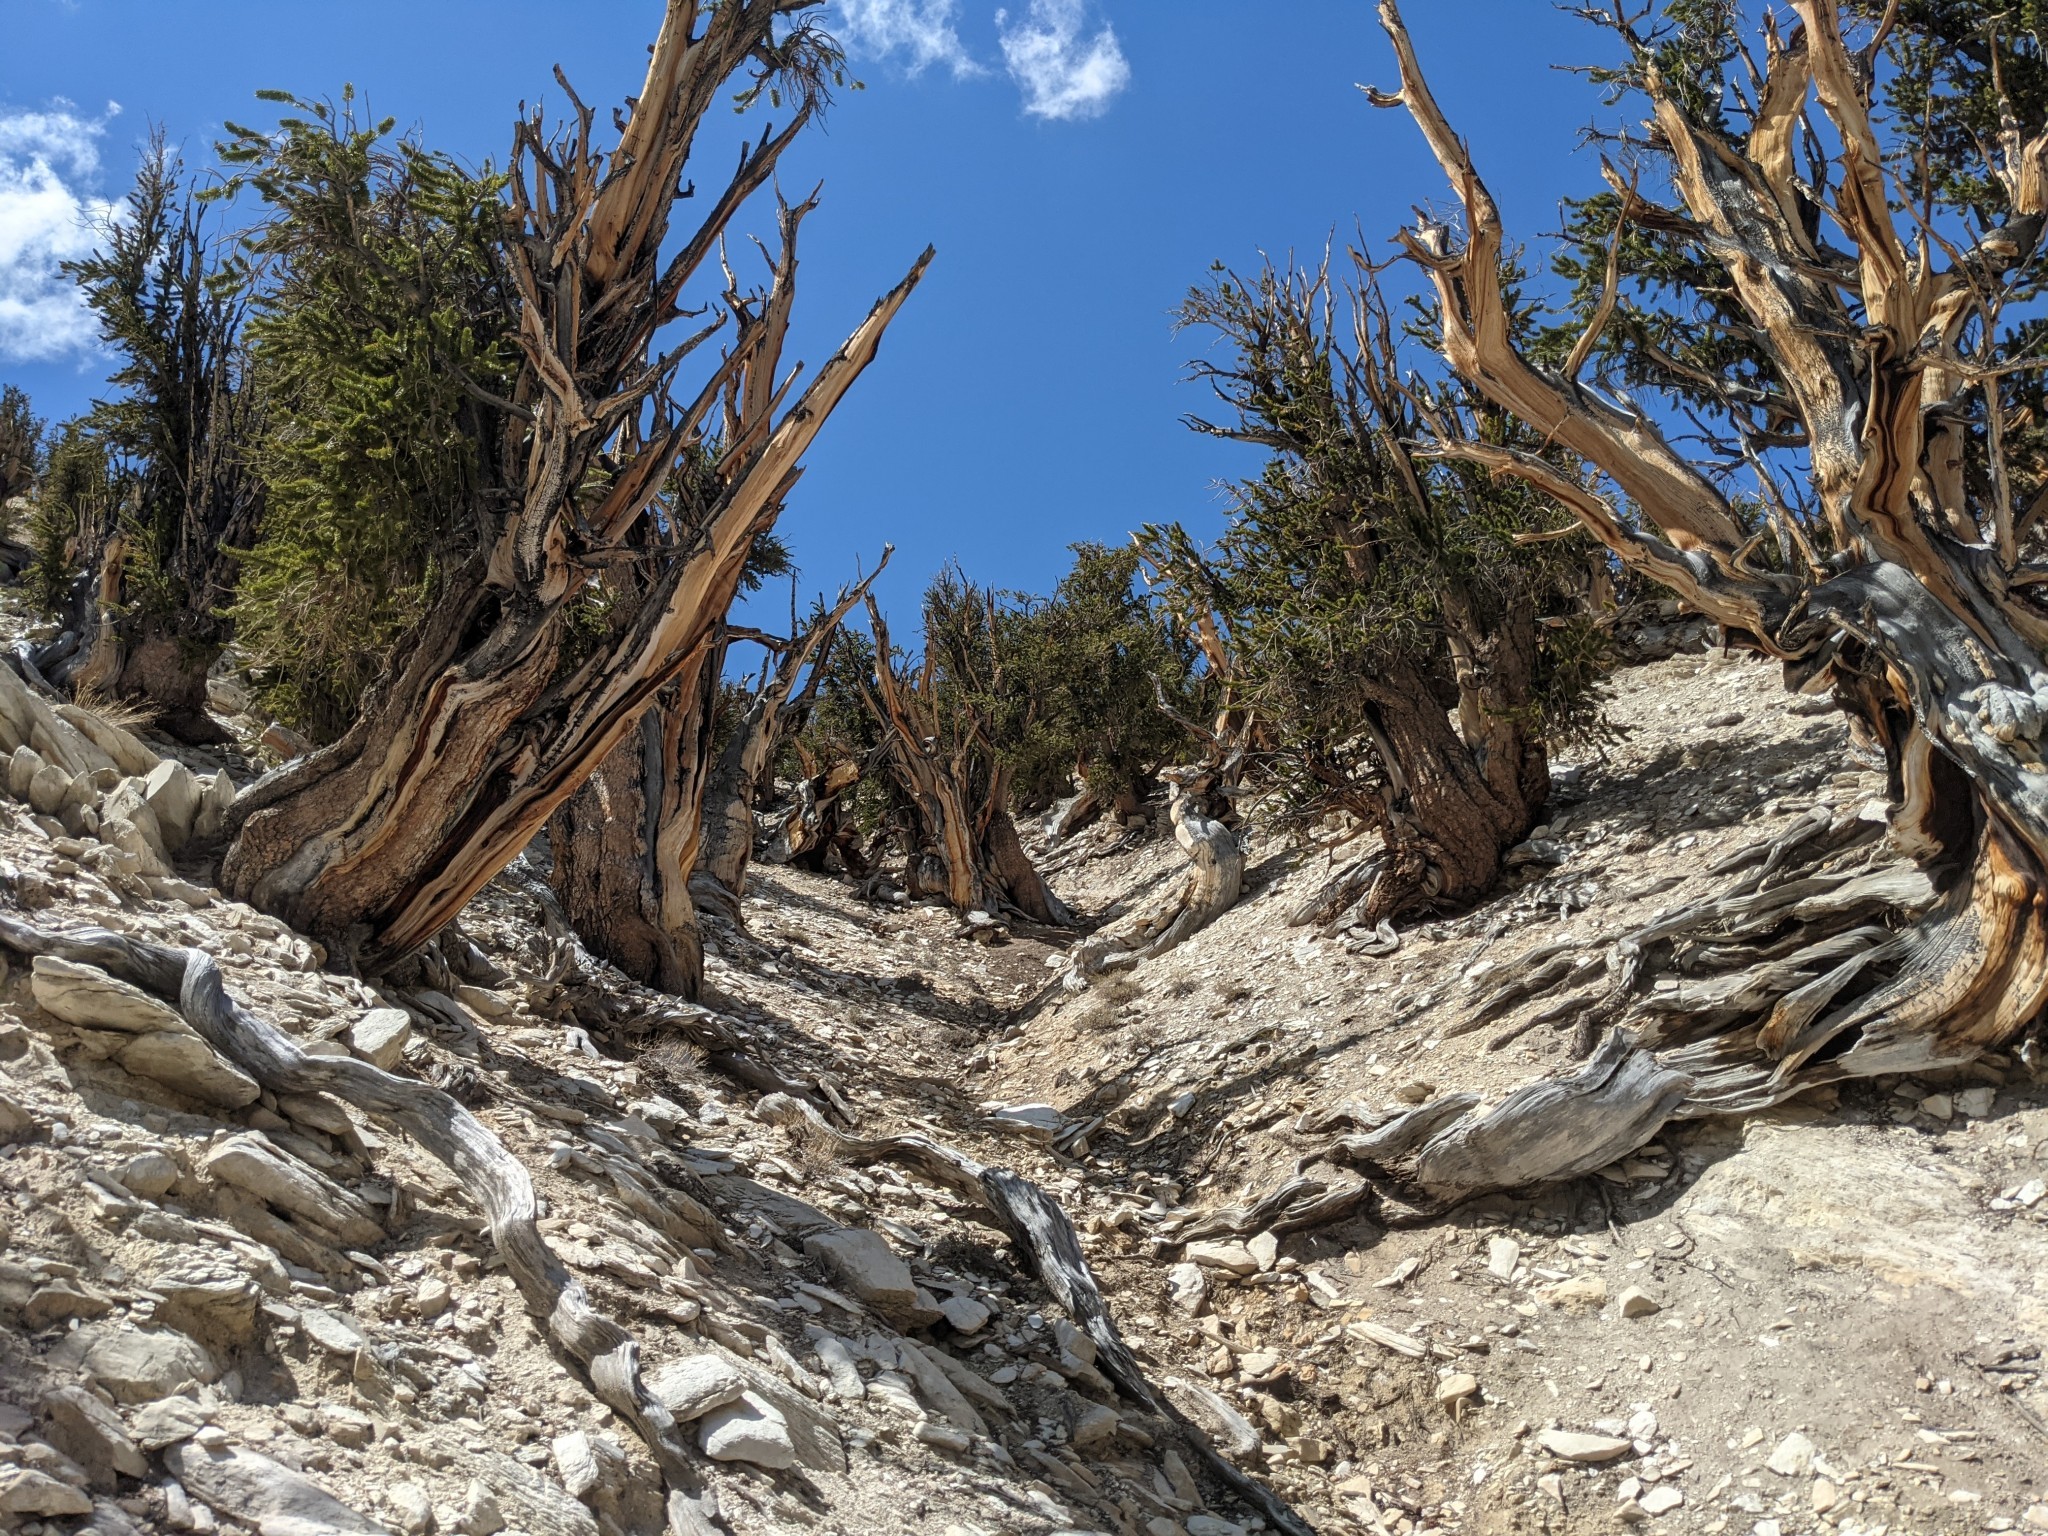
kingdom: Plantae
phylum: Tracheophyta
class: Pinopsida
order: Pinales
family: Pinaceae
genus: Pinus
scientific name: Pinus longaeva
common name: Intermountain bristlecone pine
